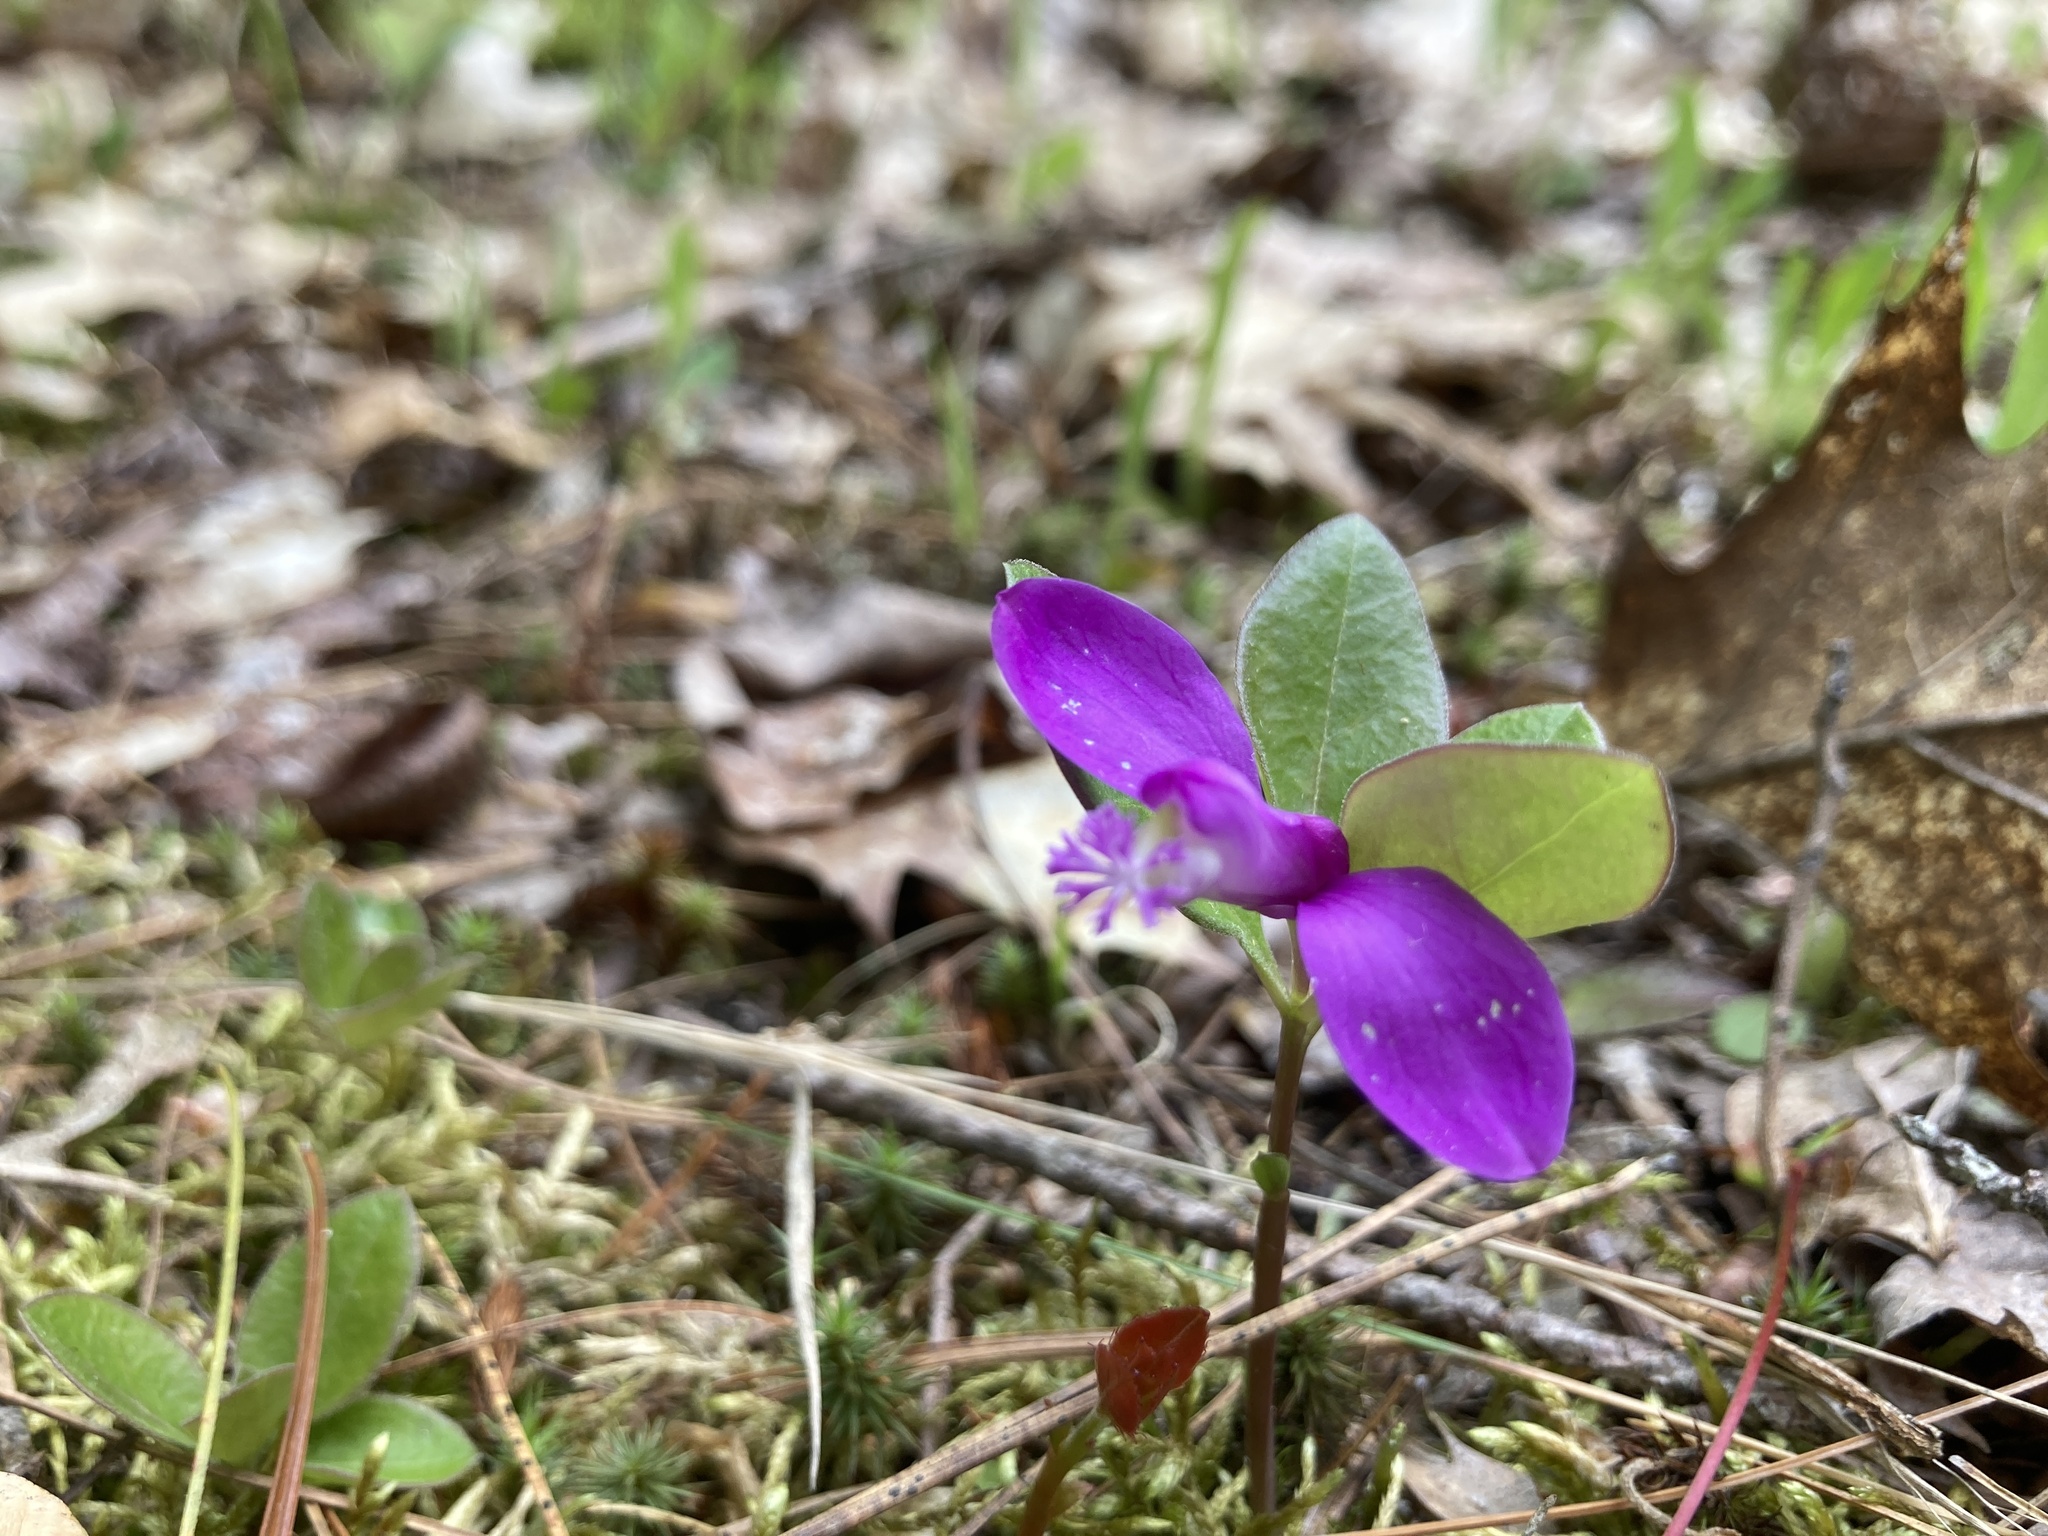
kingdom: Plantae
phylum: Tracheophyta
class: Magnoliopsida
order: Fabales
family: Polygalaceae
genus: Polygaloides
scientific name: Polygaloides paucifolia
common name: Bird-on-the-wing
